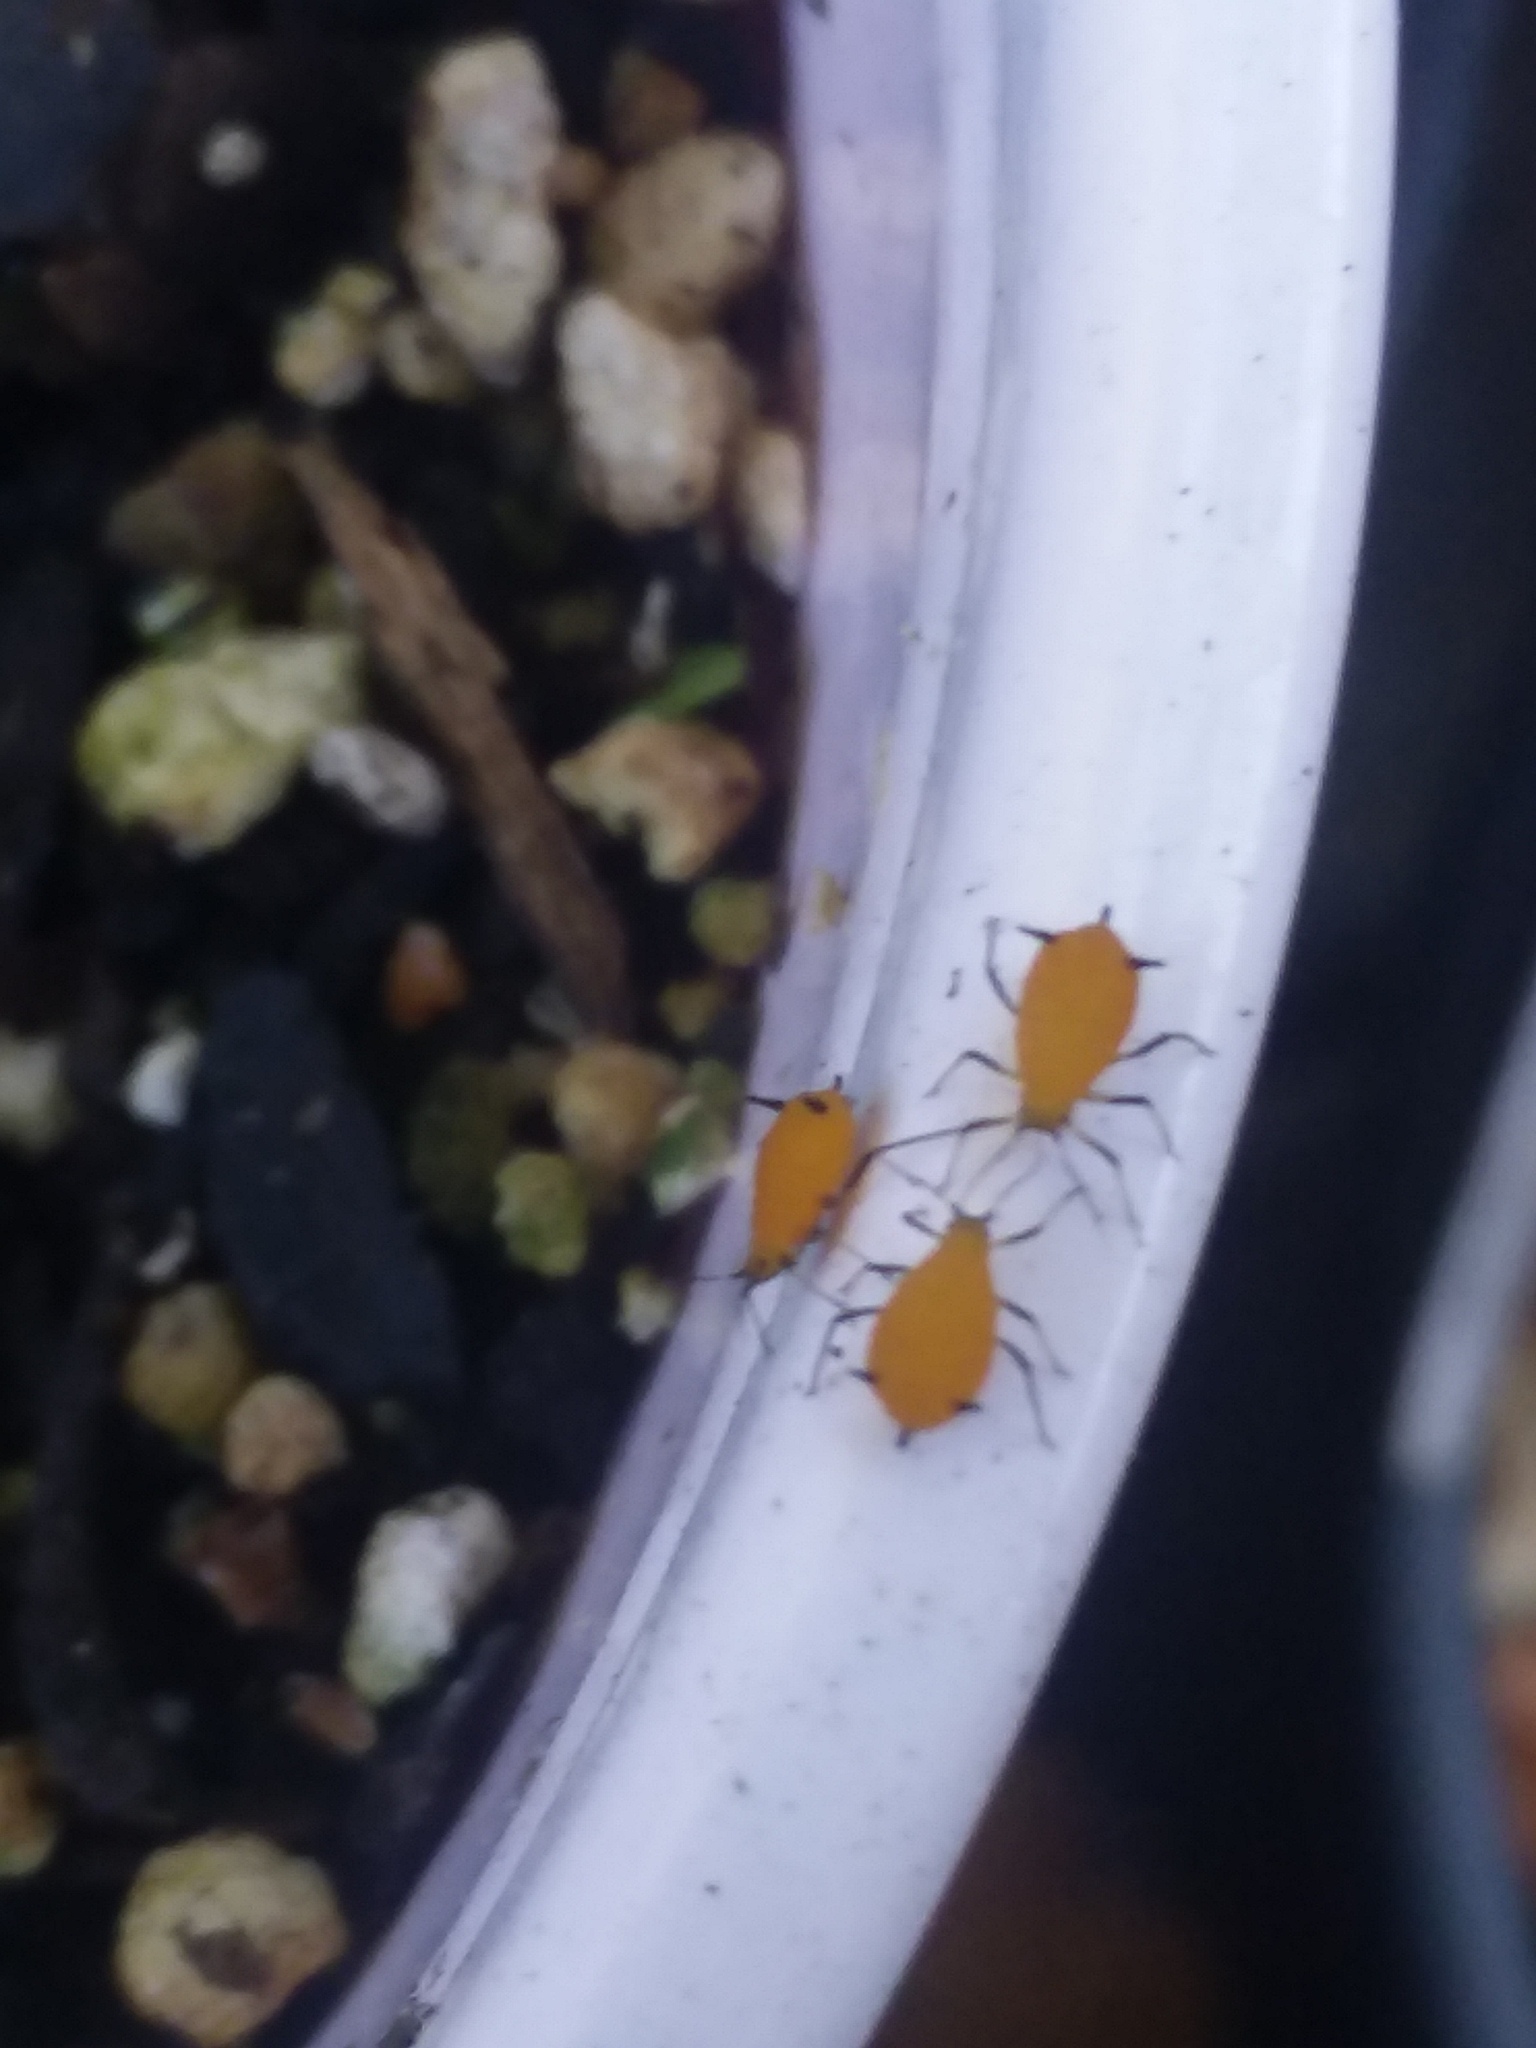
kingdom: Animalia
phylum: Arthropoda
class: Insecta
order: Hemiptera
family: Aphididae
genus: Aphis
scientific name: Aphis nerii
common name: Oleander aphid
